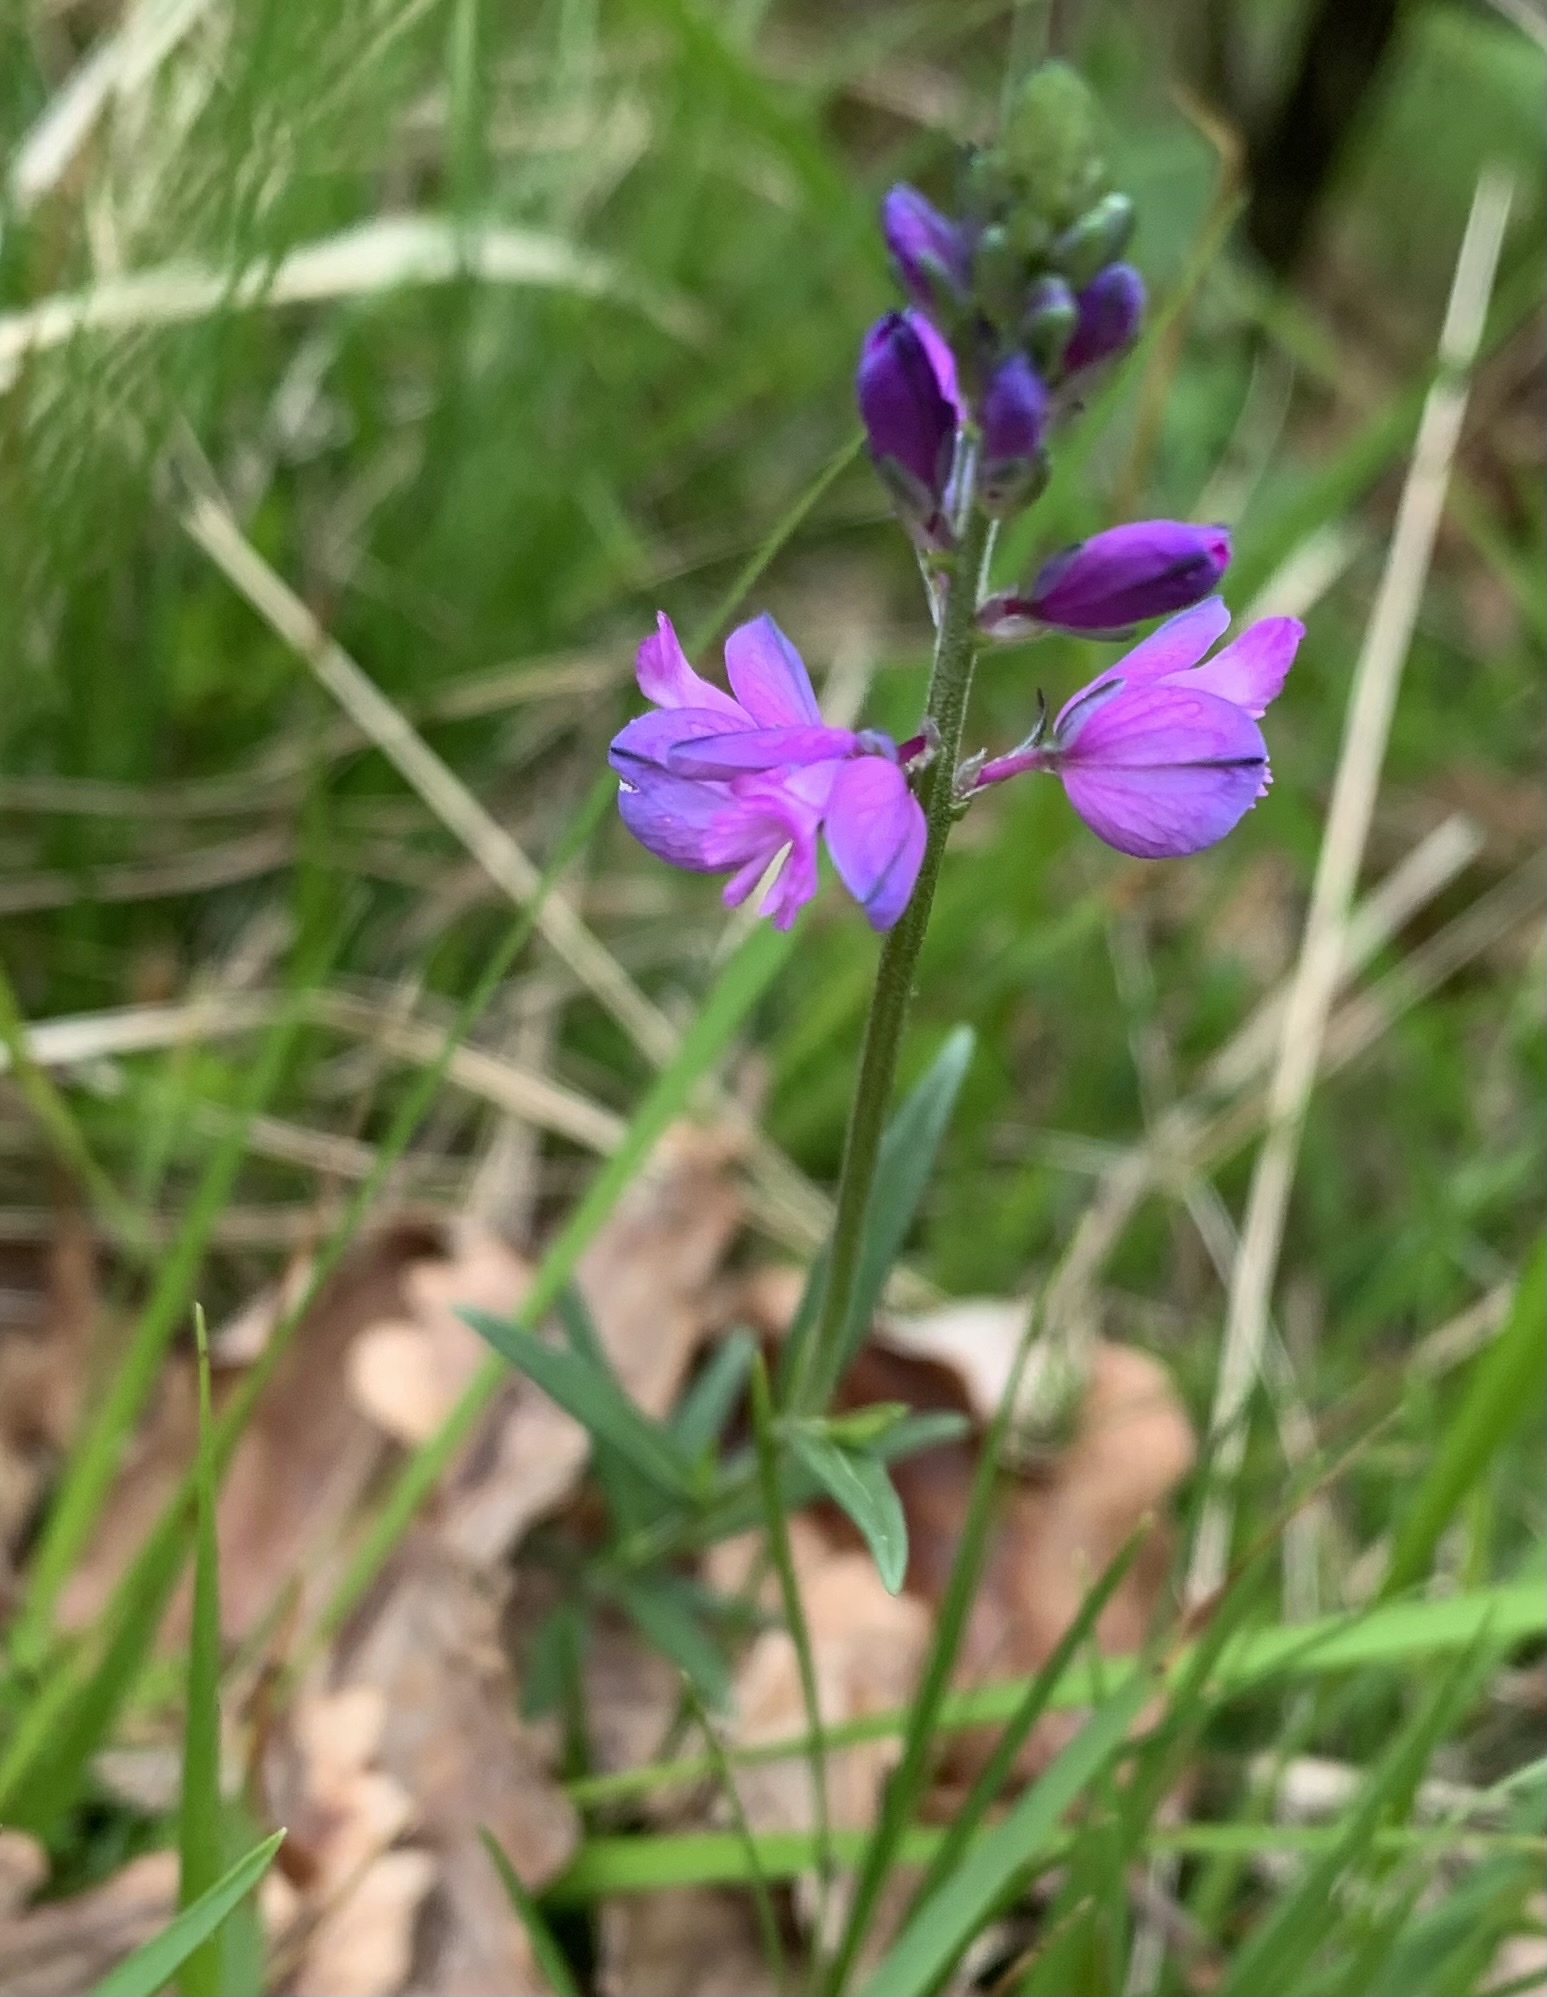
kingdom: Plantae
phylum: Tracheophyta
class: Magnoliopsida
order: Fabales
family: Polygalaceae
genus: Polygala
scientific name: Polygala nicaeensis
